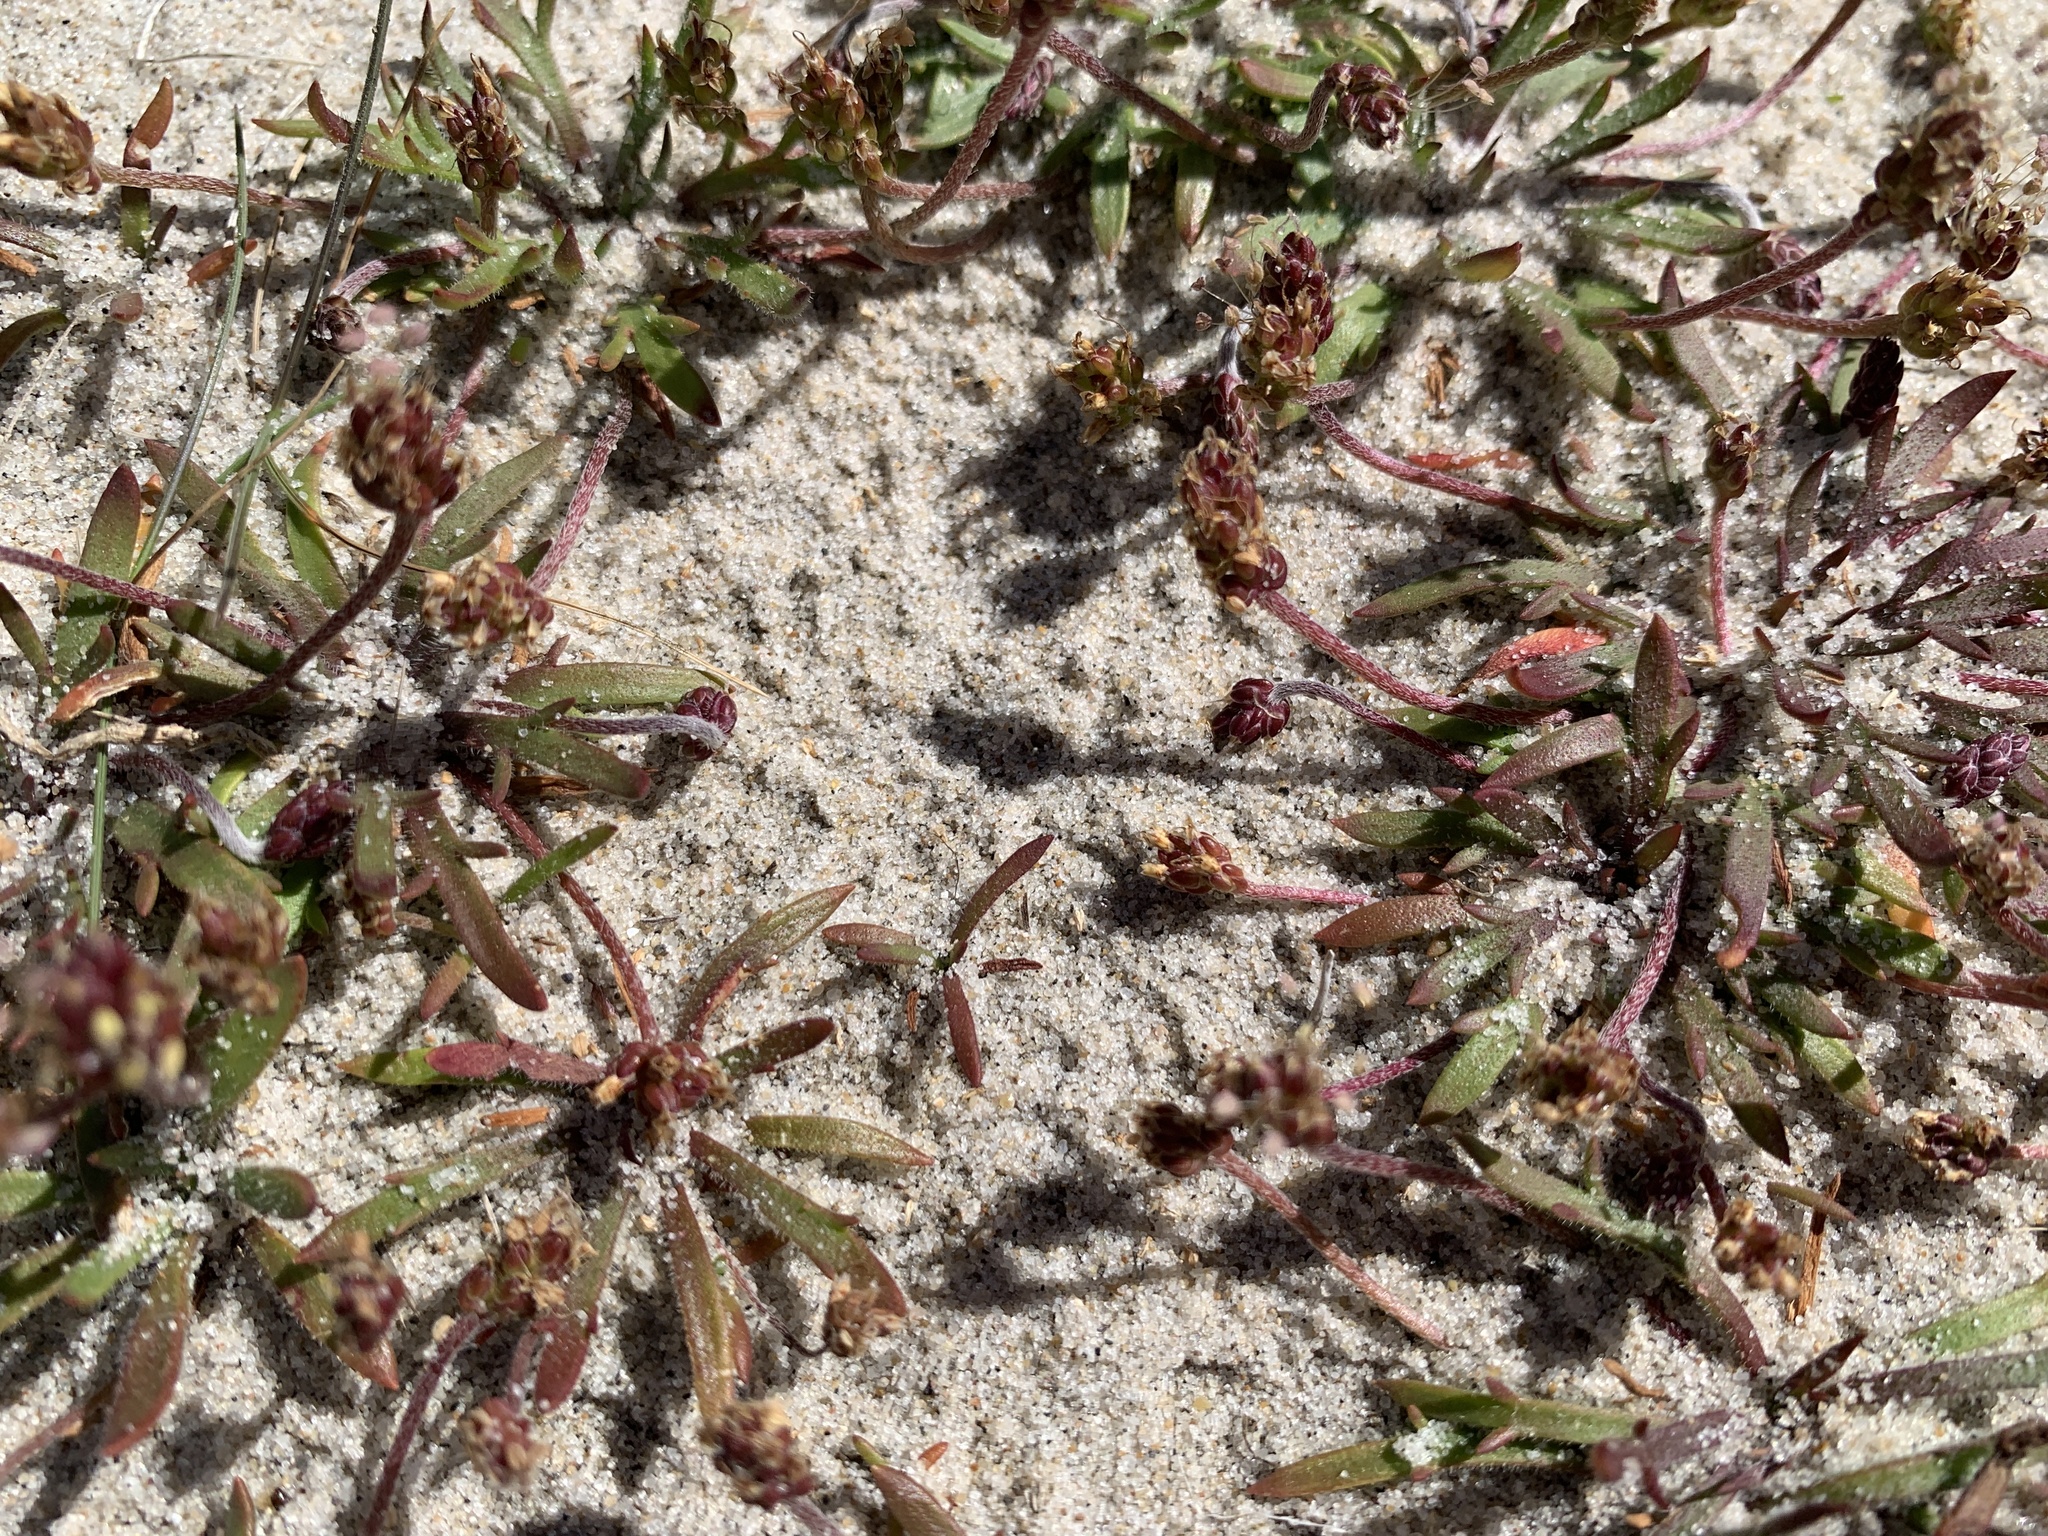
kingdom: Plantae
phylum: Tracheophyta
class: Magnoliopsida
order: Lamiales
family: Plantaginaceae
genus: Plantago
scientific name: Plantago coronopus
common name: Buck's-horn plantain
